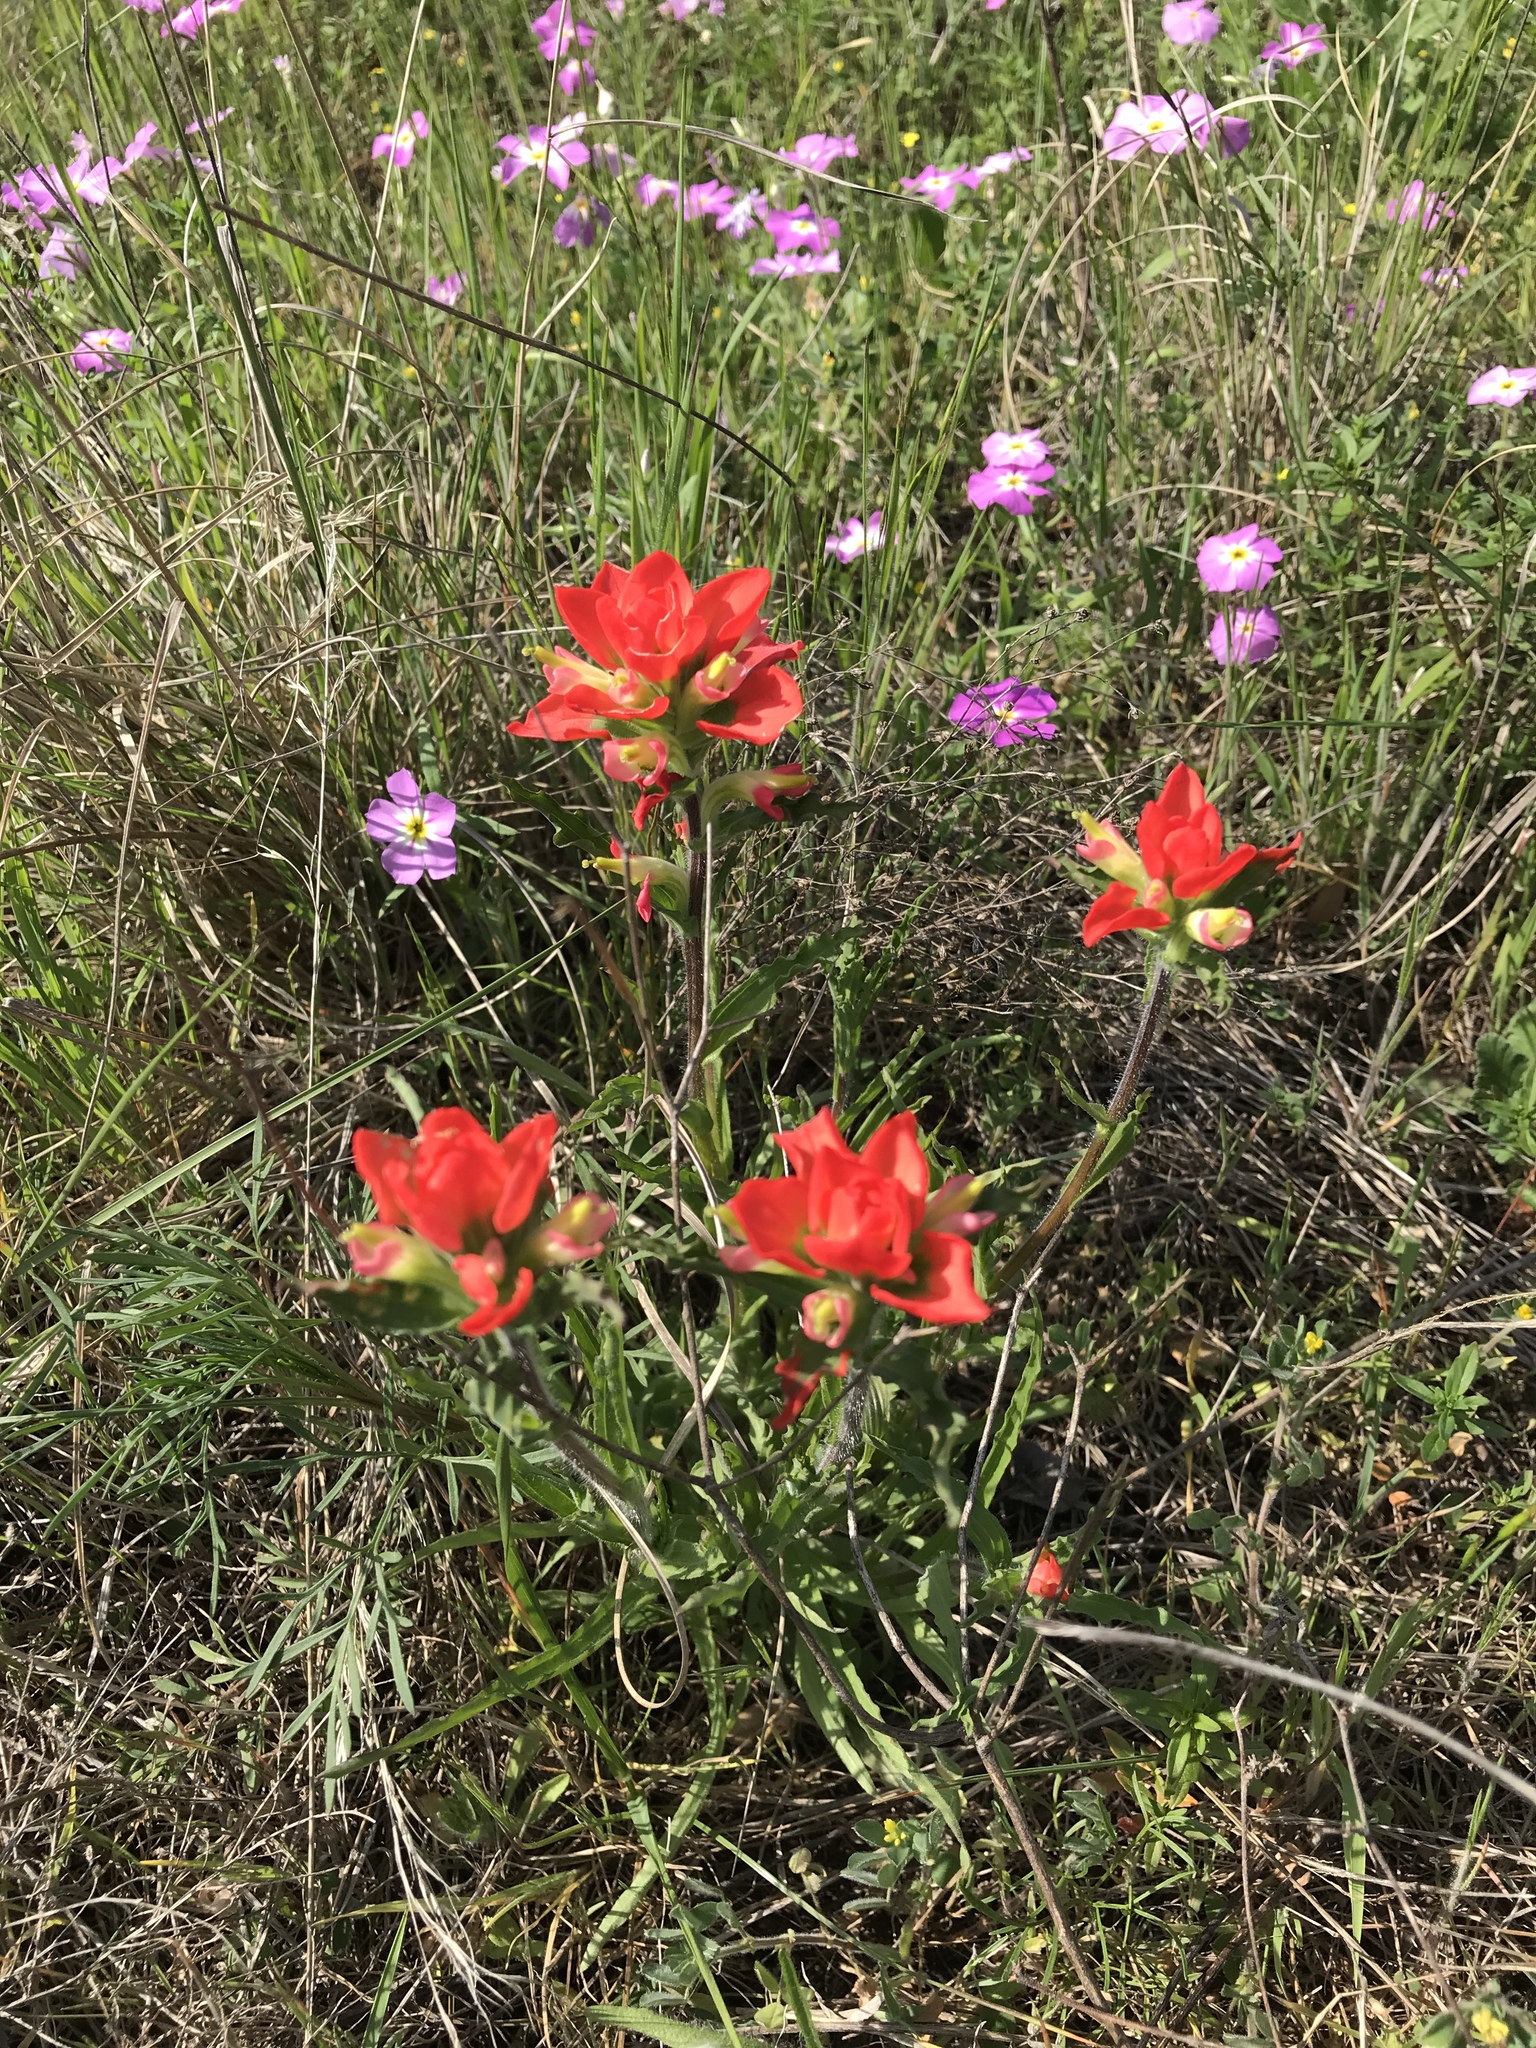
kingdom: Plantae
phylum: Tracheophyta
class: Magnoliopsida
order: Lamiales
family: Orobanchaceae
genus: Castilleja
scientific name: Castilleja indivisa
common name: Texas paintbrush
